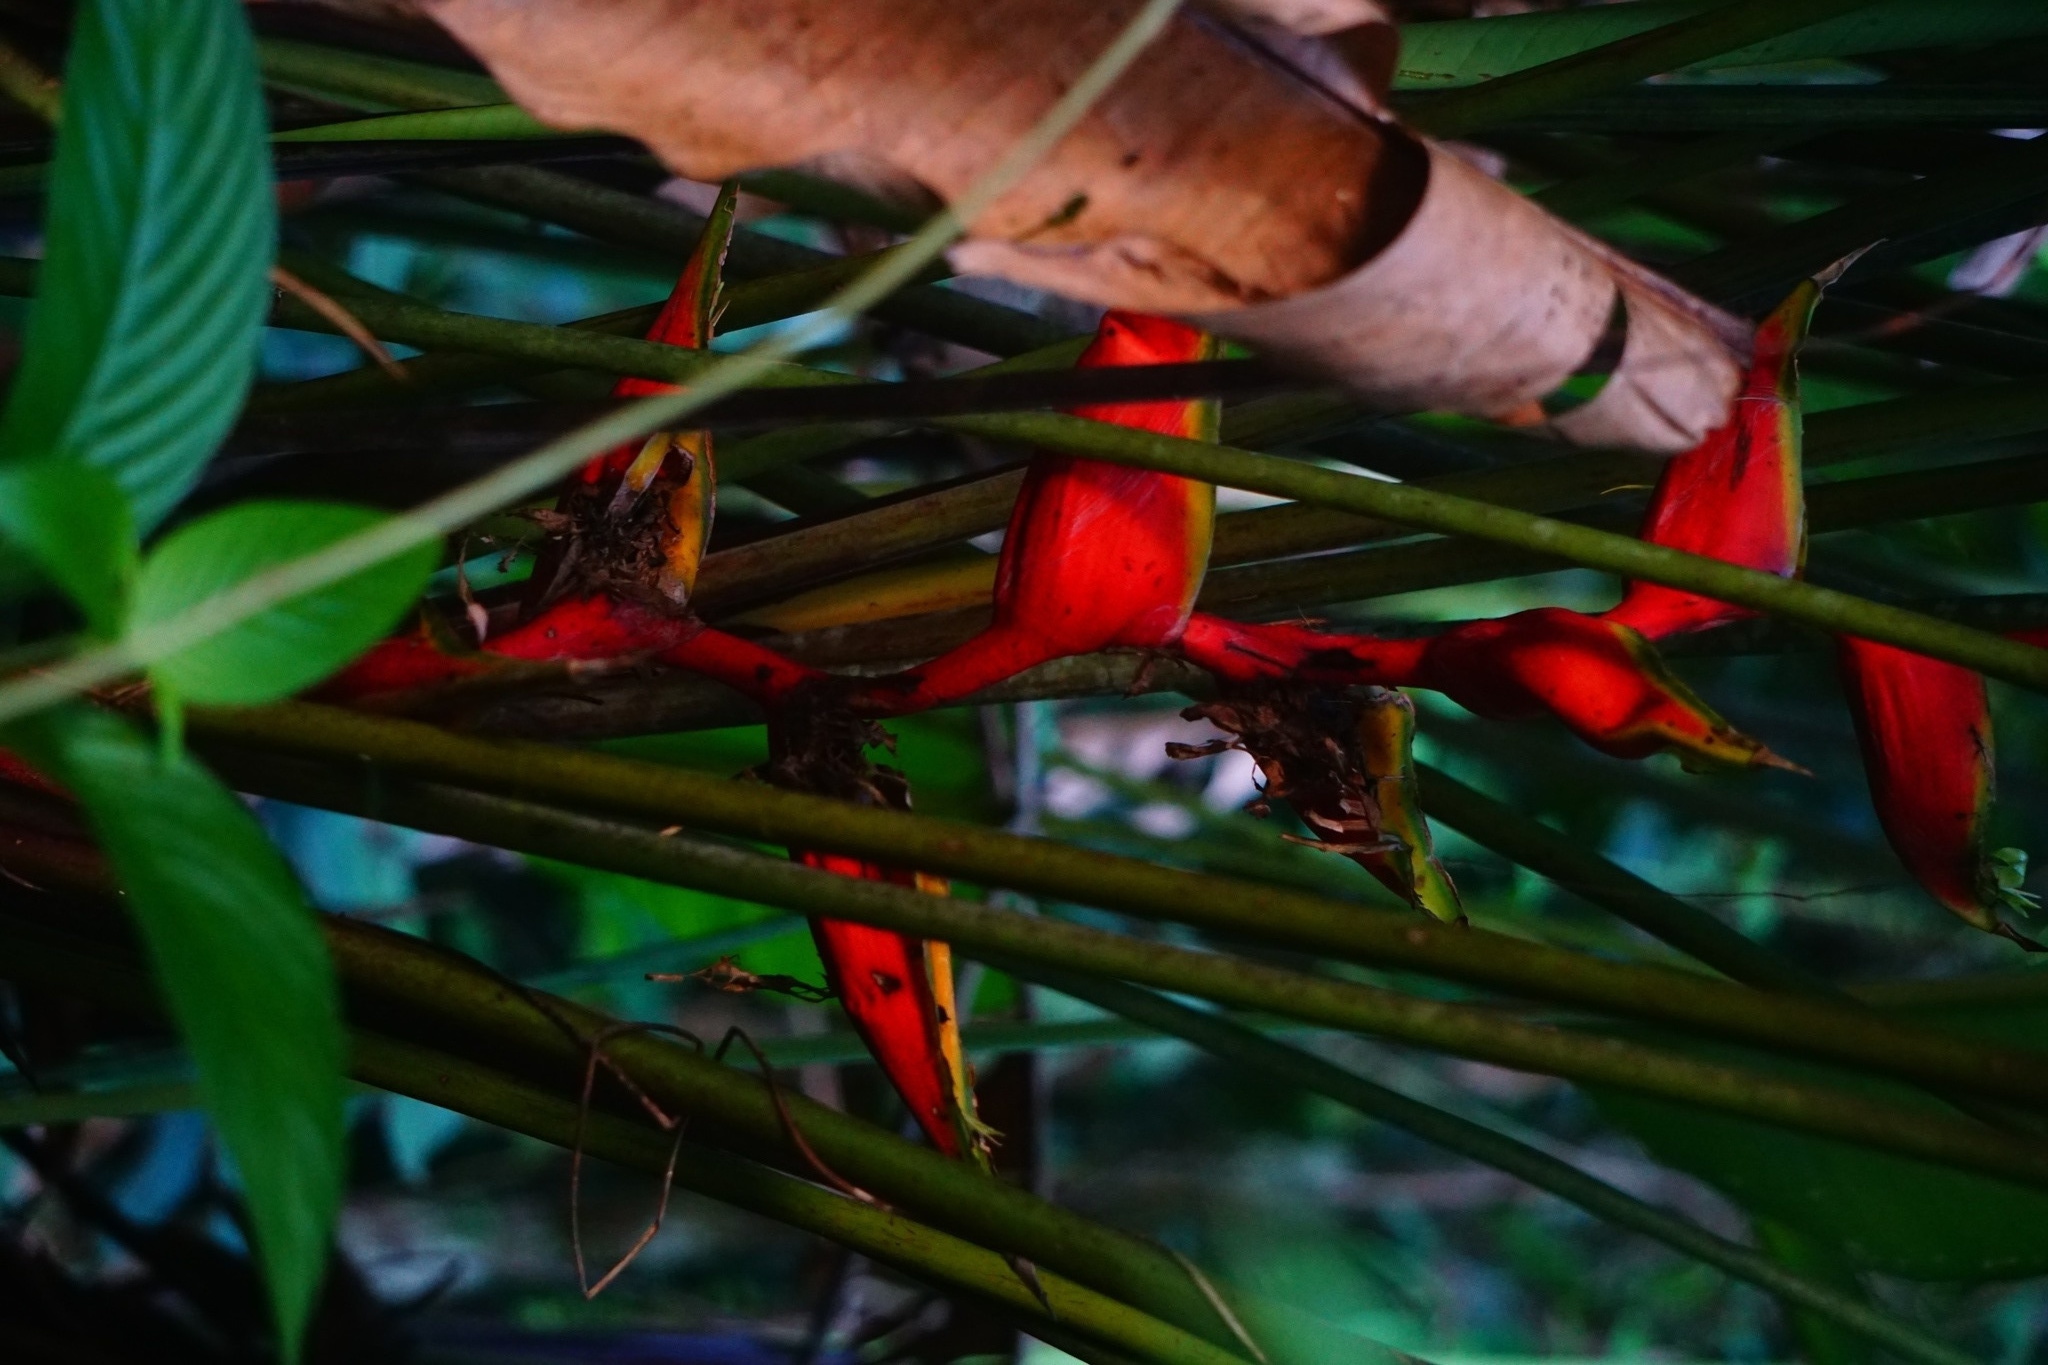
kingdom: Plantae
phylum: Tracheophyta
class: Liliopsida
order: Zingiberales
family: Heliconiaceae
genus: Heliconia
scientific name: Heliconia bihai
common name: Macaw flower
